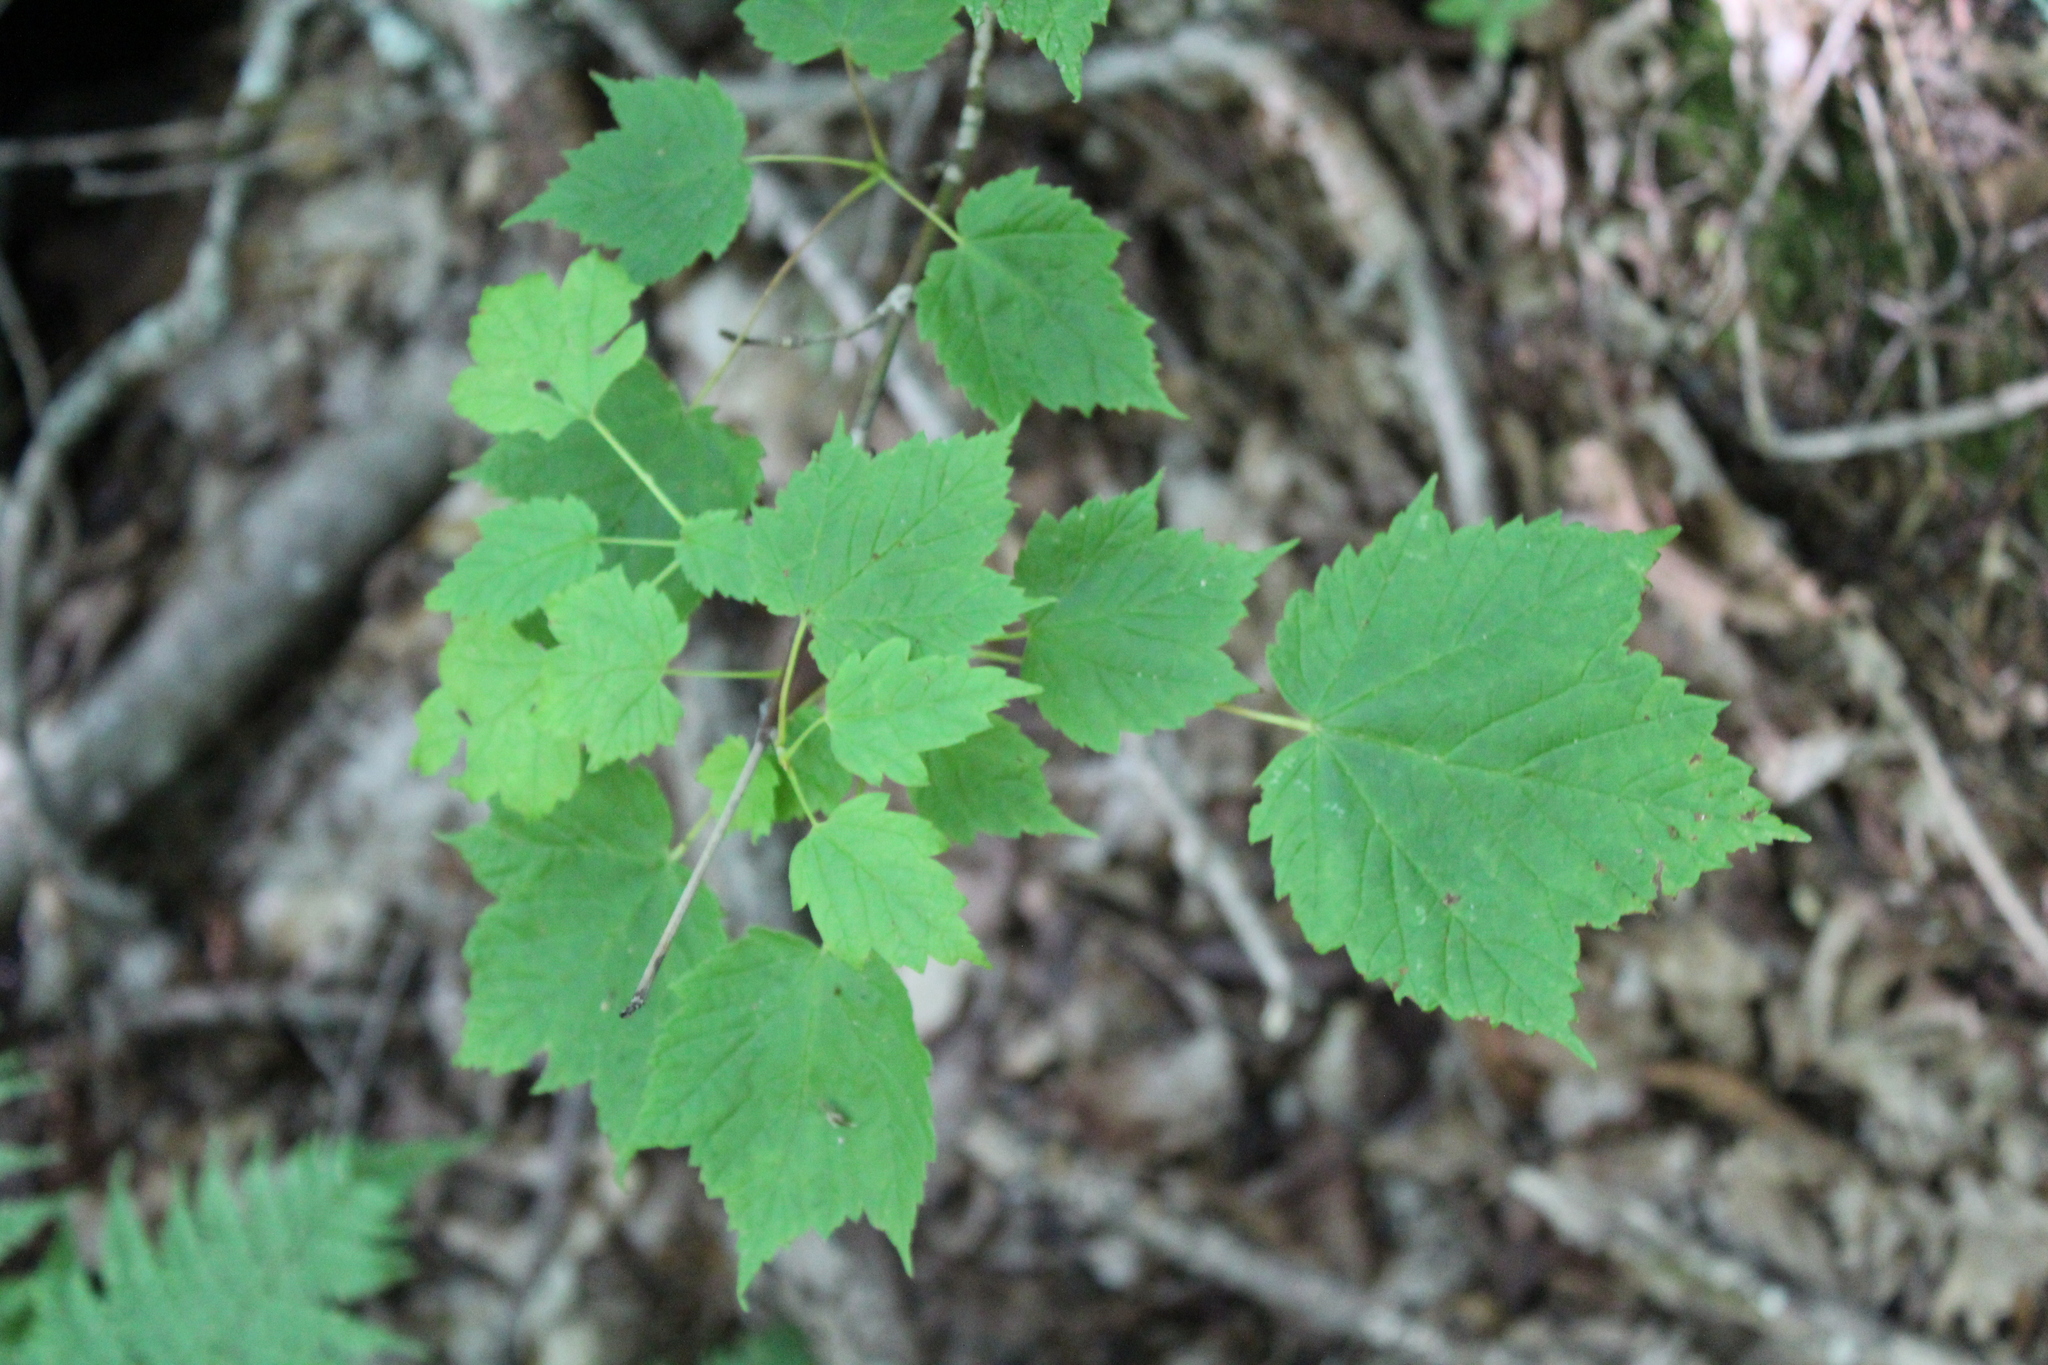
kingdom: Plantae
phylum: Tracheophyta
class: Magnoliopsida
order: Sapindales
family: Sapindaceae
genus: Acer
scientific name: Acer spicatum
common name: Mountain maple
